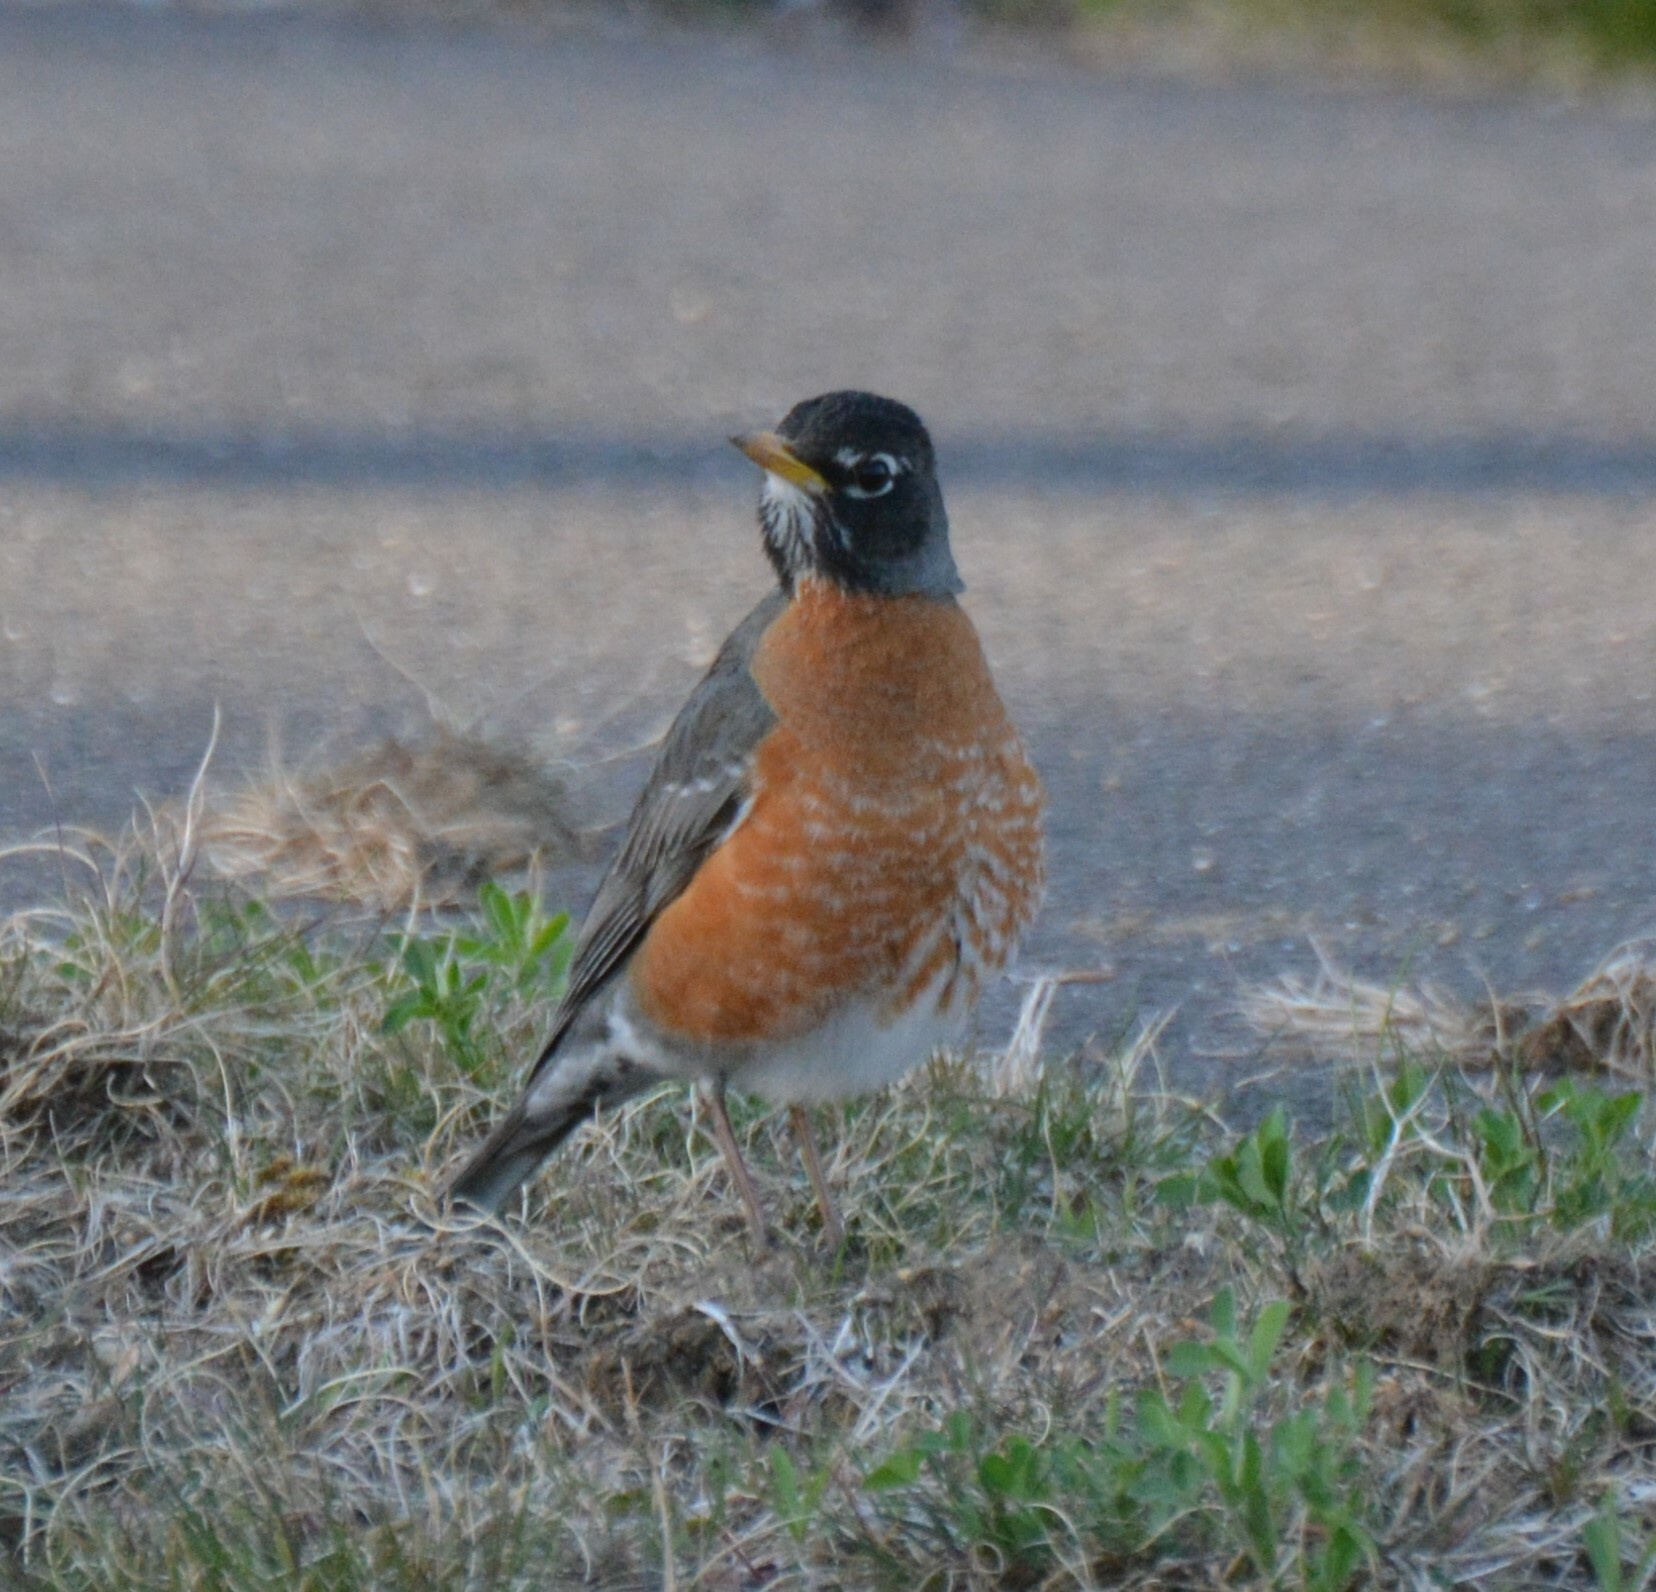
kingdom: Animalia
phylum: Chordata
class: Aves
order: Passeriformes
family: Turdidae
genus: Turdus
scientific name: Turdus migratorius
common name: American robin
